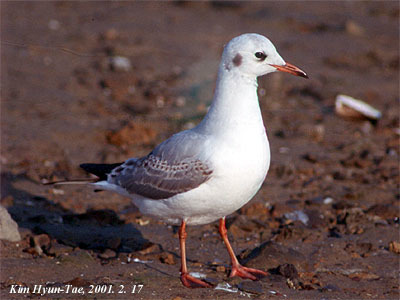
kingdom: Animalia
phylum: Chordata
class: Aves
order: Charadriiformes
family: Laridae
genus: Chroicocephalus
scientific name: Chroicocephalus ridibundus
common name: Black-headed gull
